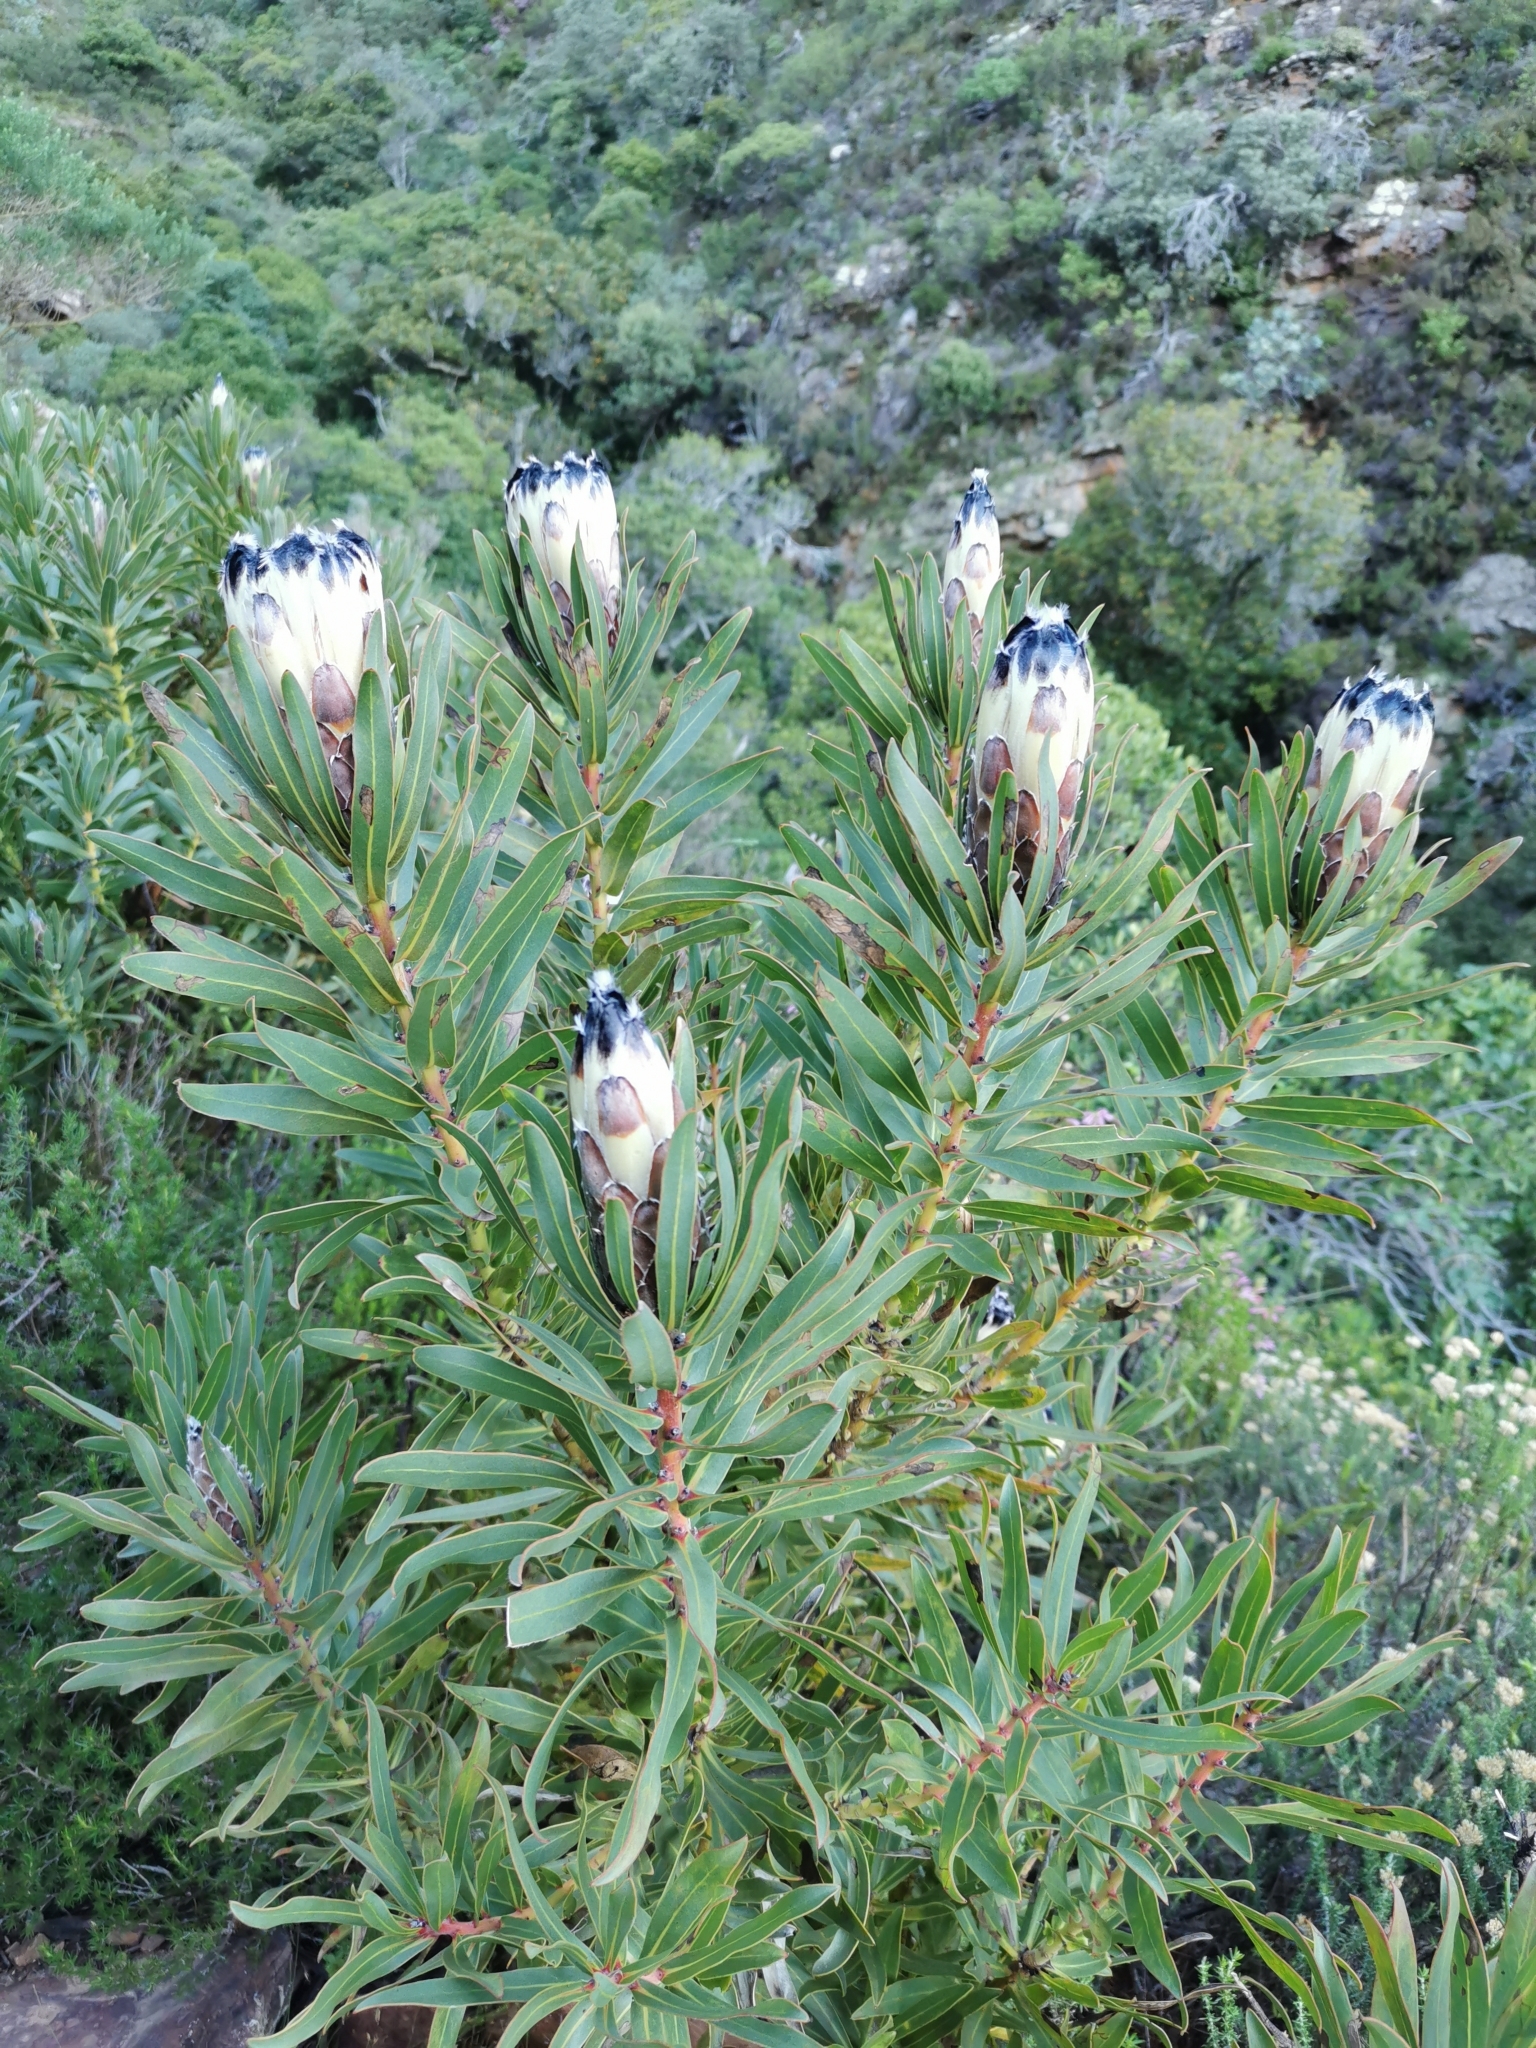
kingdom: Plantae
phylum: Tracheophyta
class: Magnoliopsida
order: Proteales
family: Proteaceae
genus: Protea
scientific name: Protea lepidocarpodendron
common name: Black-bearded protea
